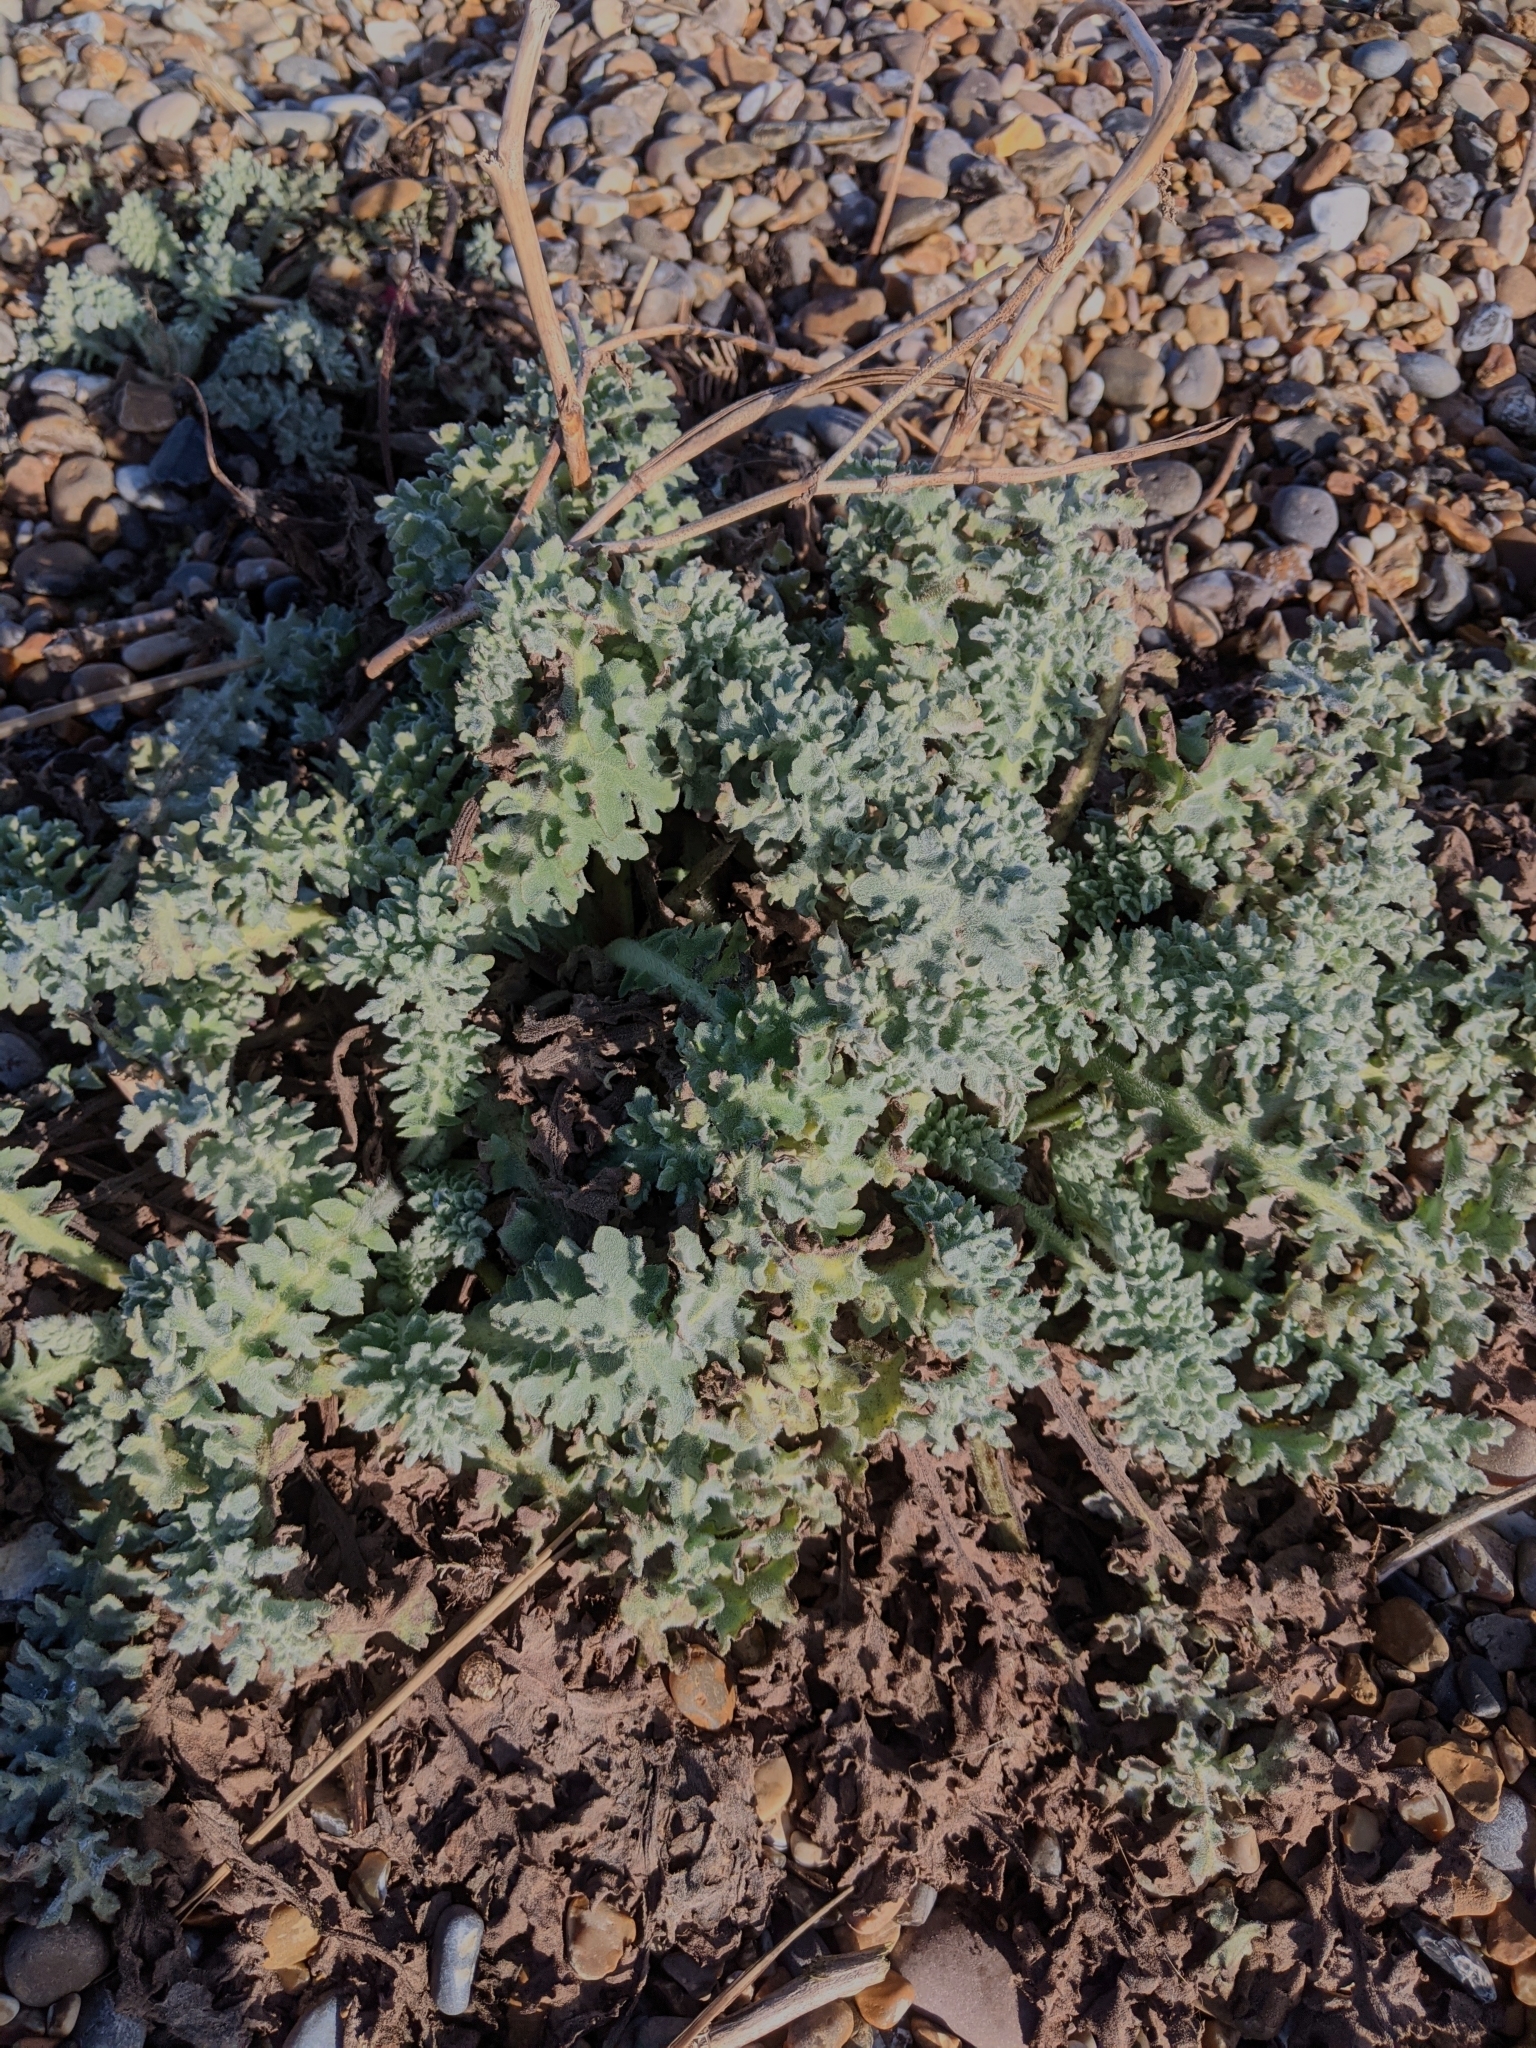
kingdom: Plantae
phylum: Tracheophyta
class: Magnoliopsida
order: Ranunculales
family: Papaveraceae
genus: Glaucium
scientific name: Glaucium flavum
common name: Yellow horned-poppy
